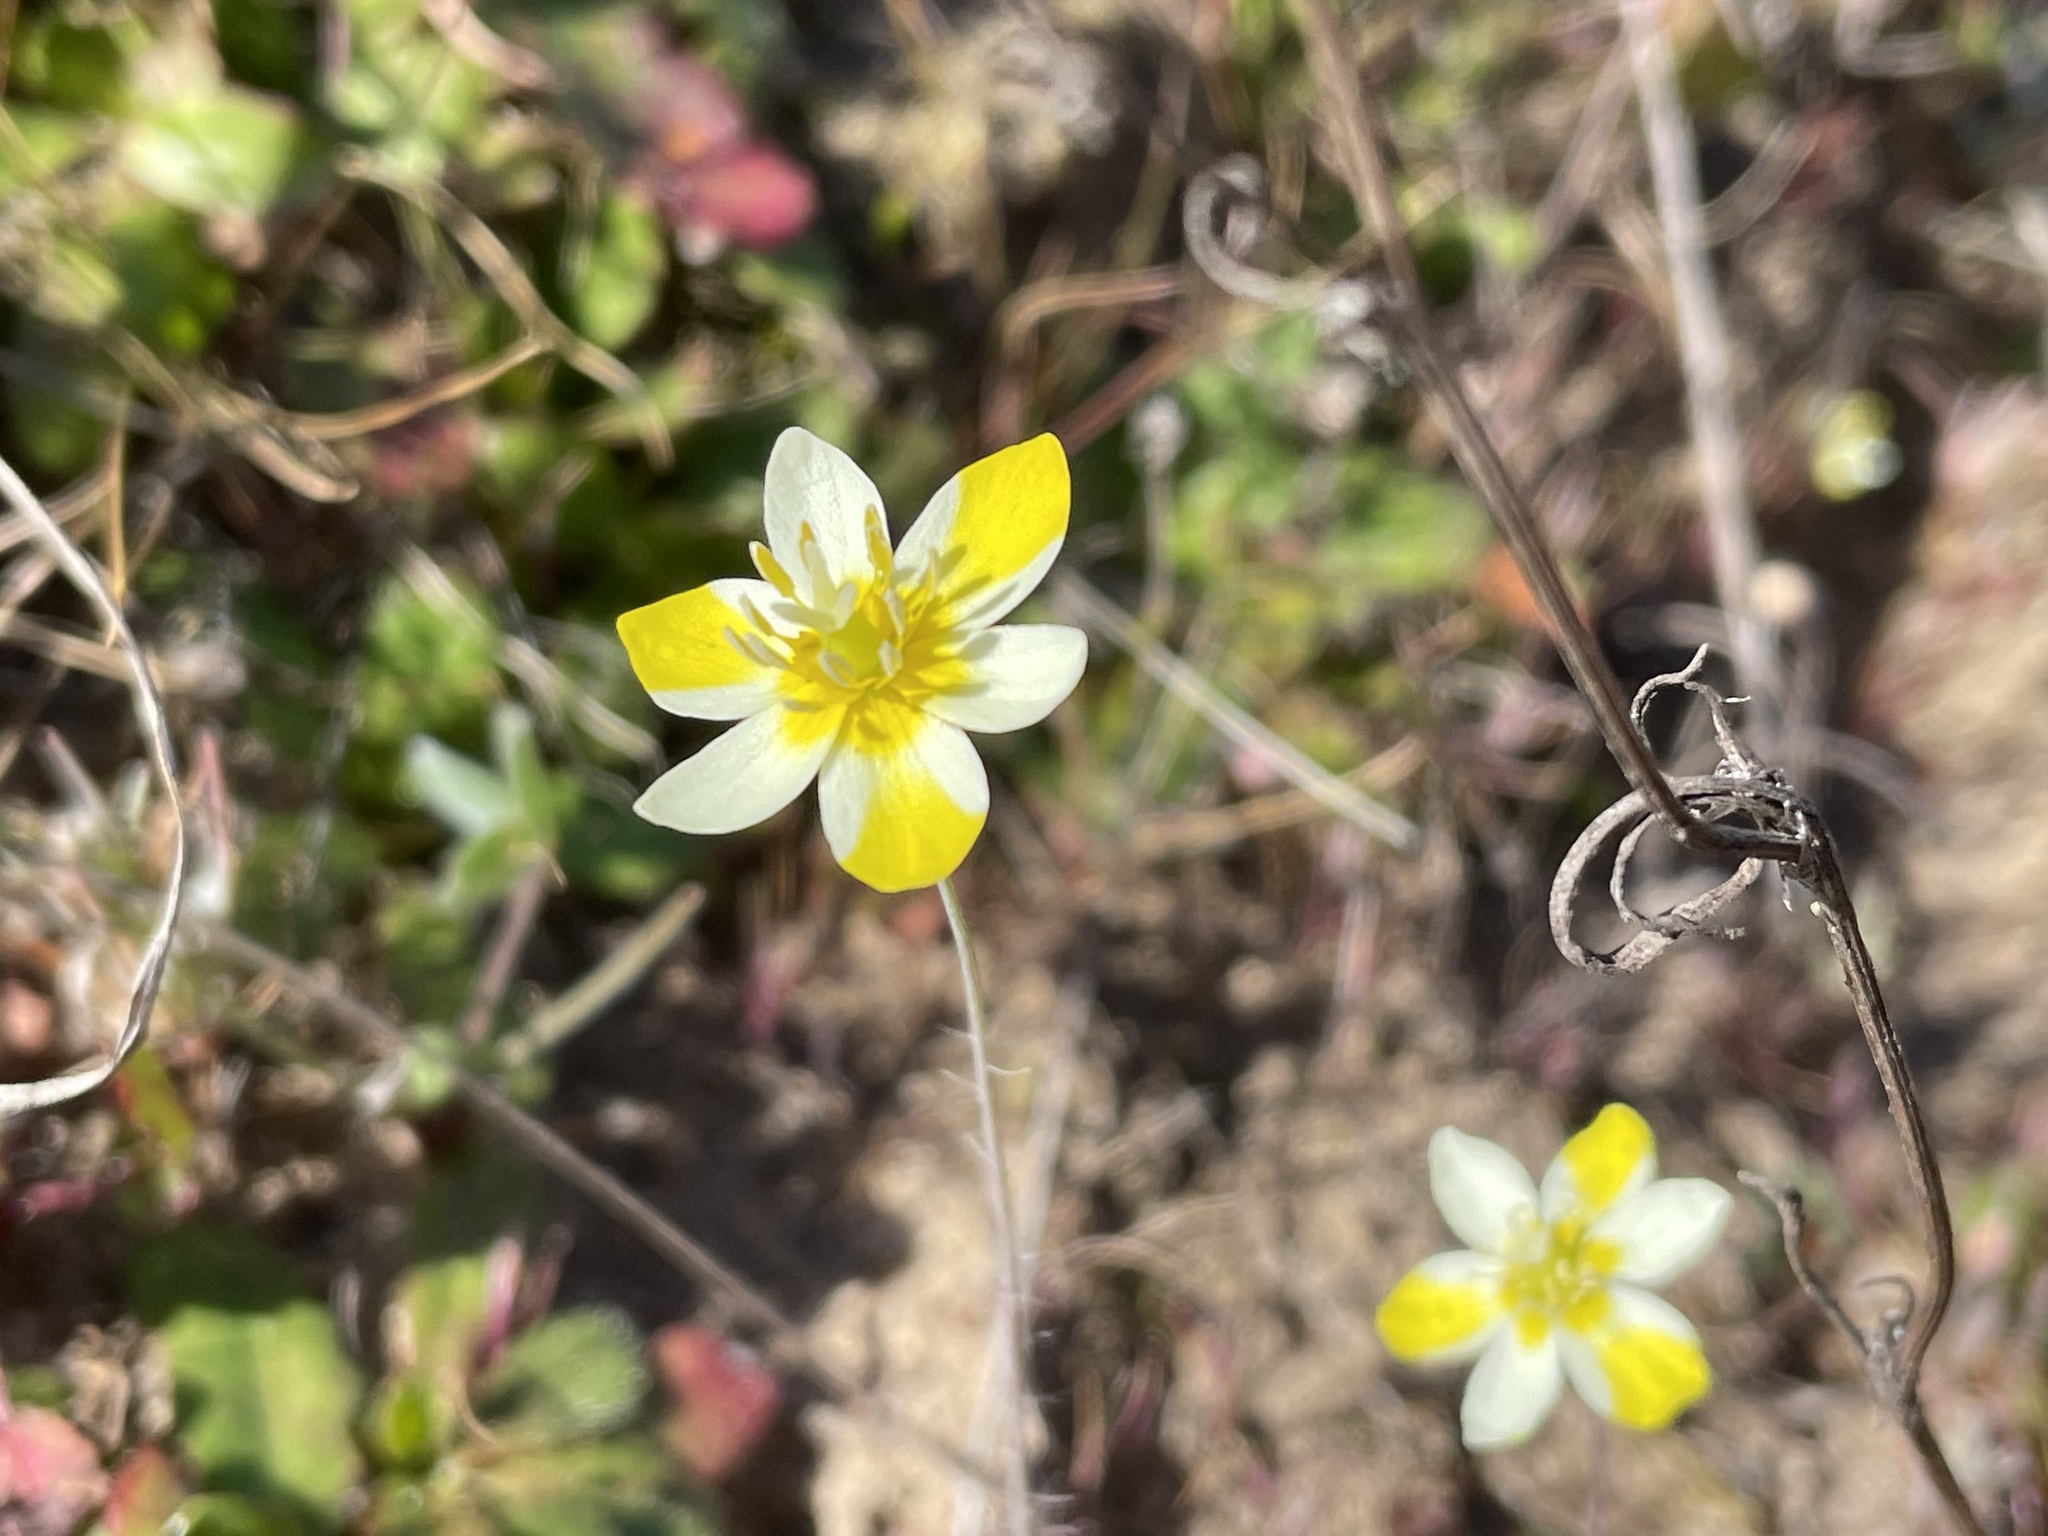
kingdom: Plantae
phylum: Tracheophyta
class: Magnoliopsida
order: Ranunculales
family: Papaveraceae
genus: Platystigma
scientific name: Platystigma lineare
